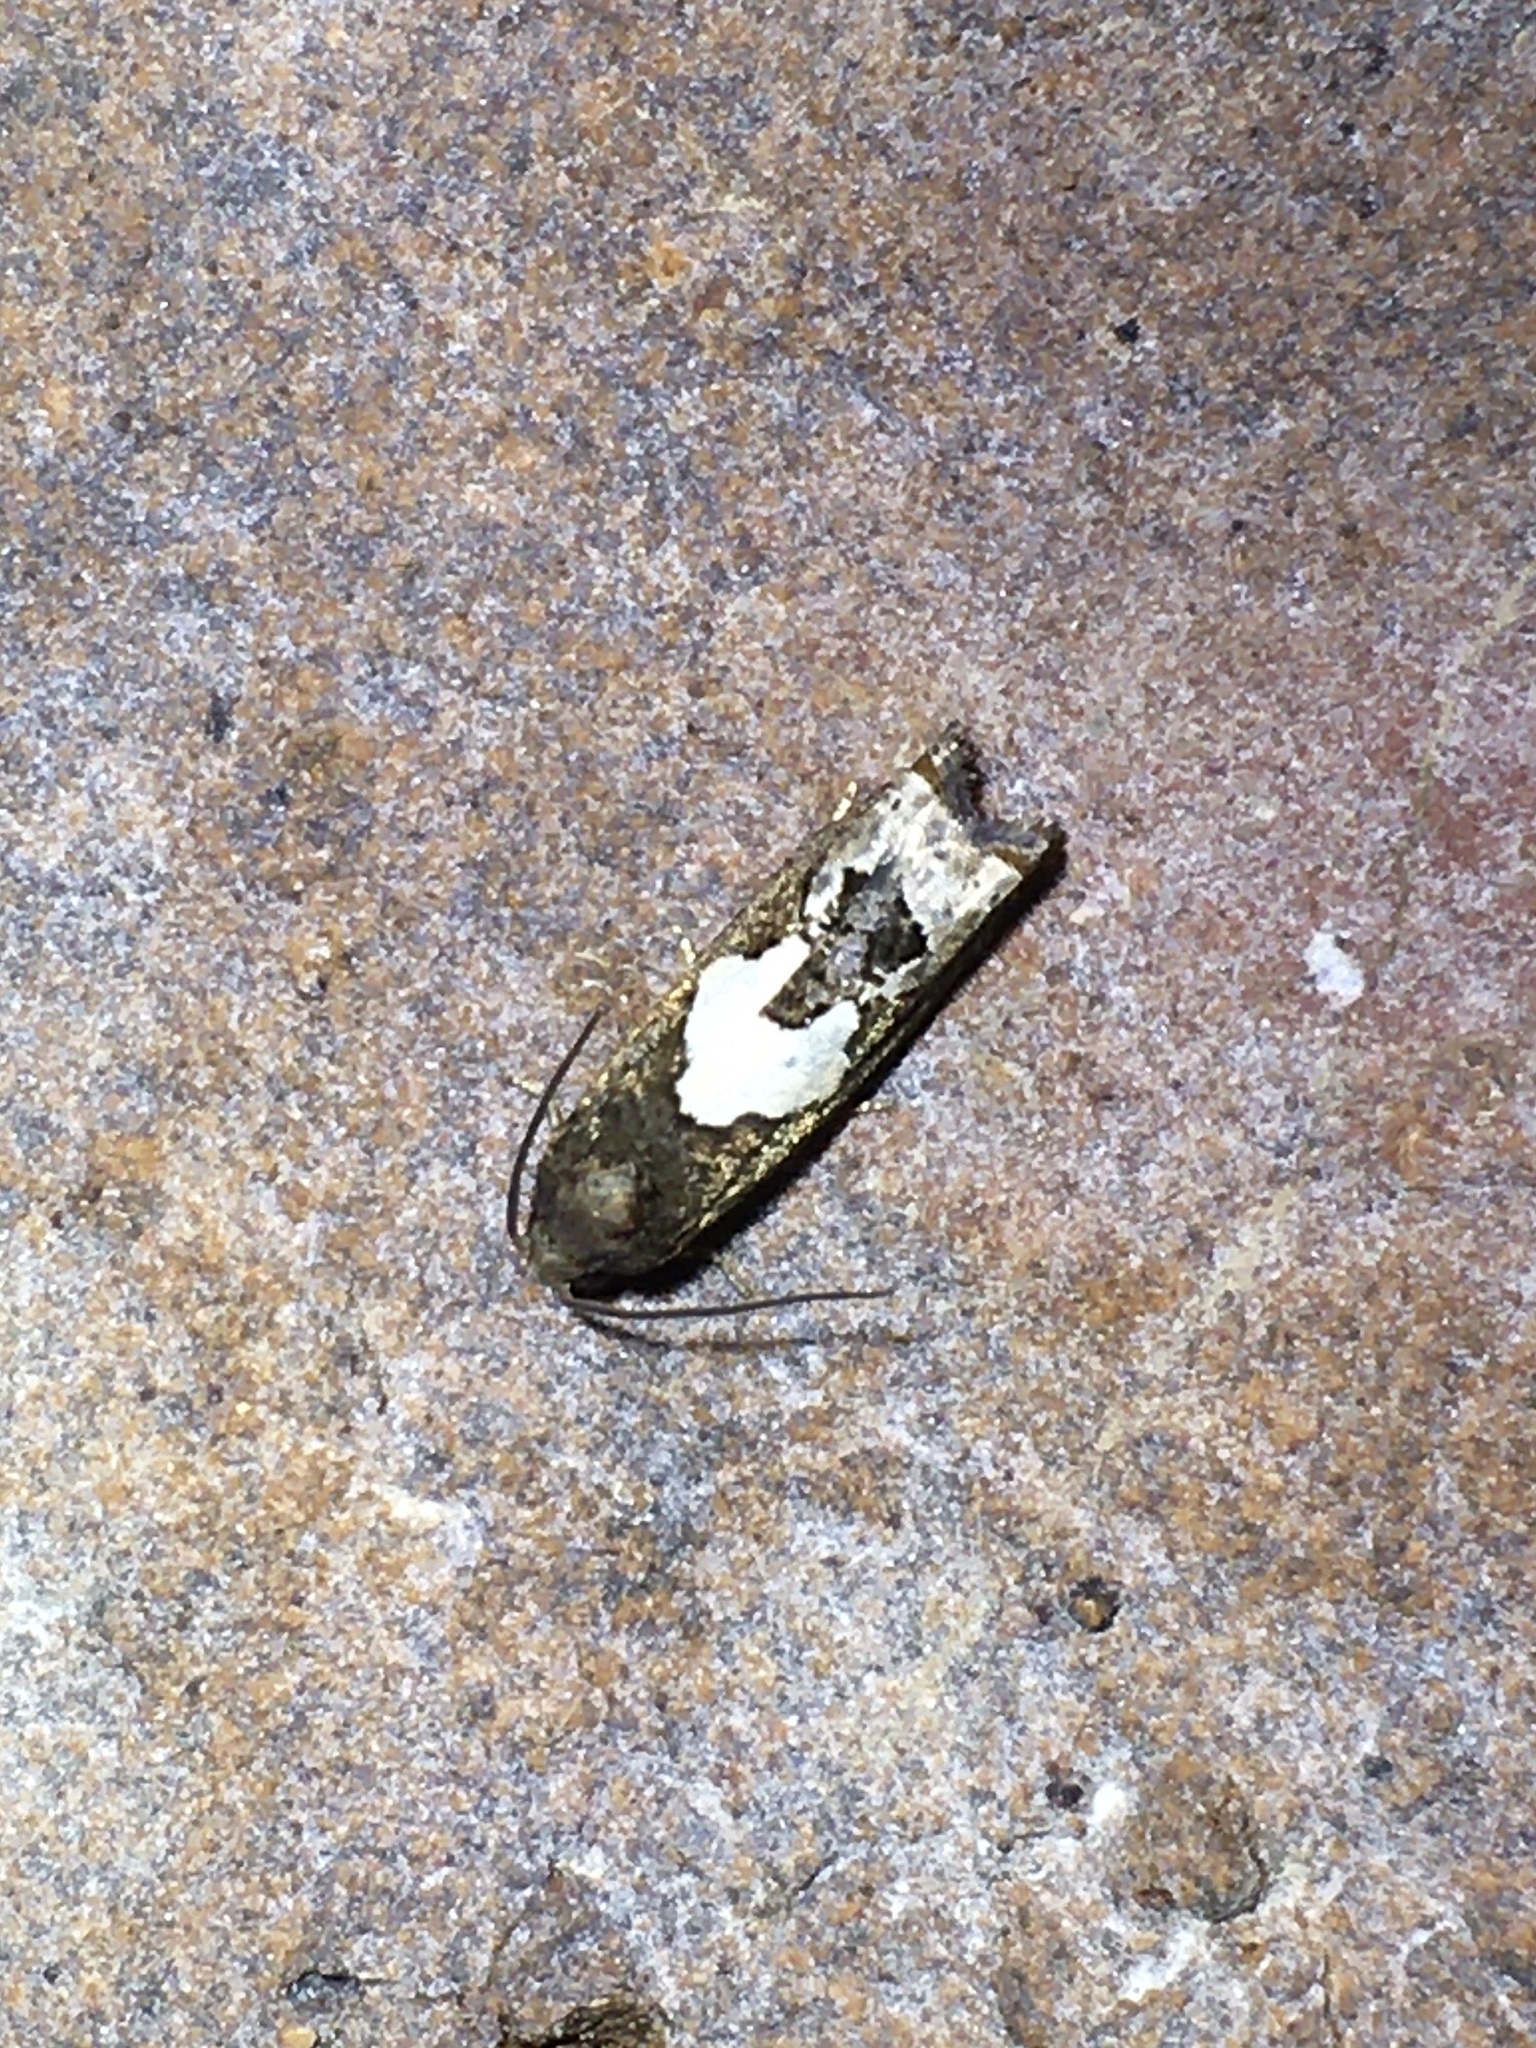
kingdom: Animalia
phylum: Arthropoda
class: Insecta
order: Lepidoptera
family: Tortricidae
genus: Epiblema
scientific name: Epiblema otiosana
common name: Bidens borer moth
